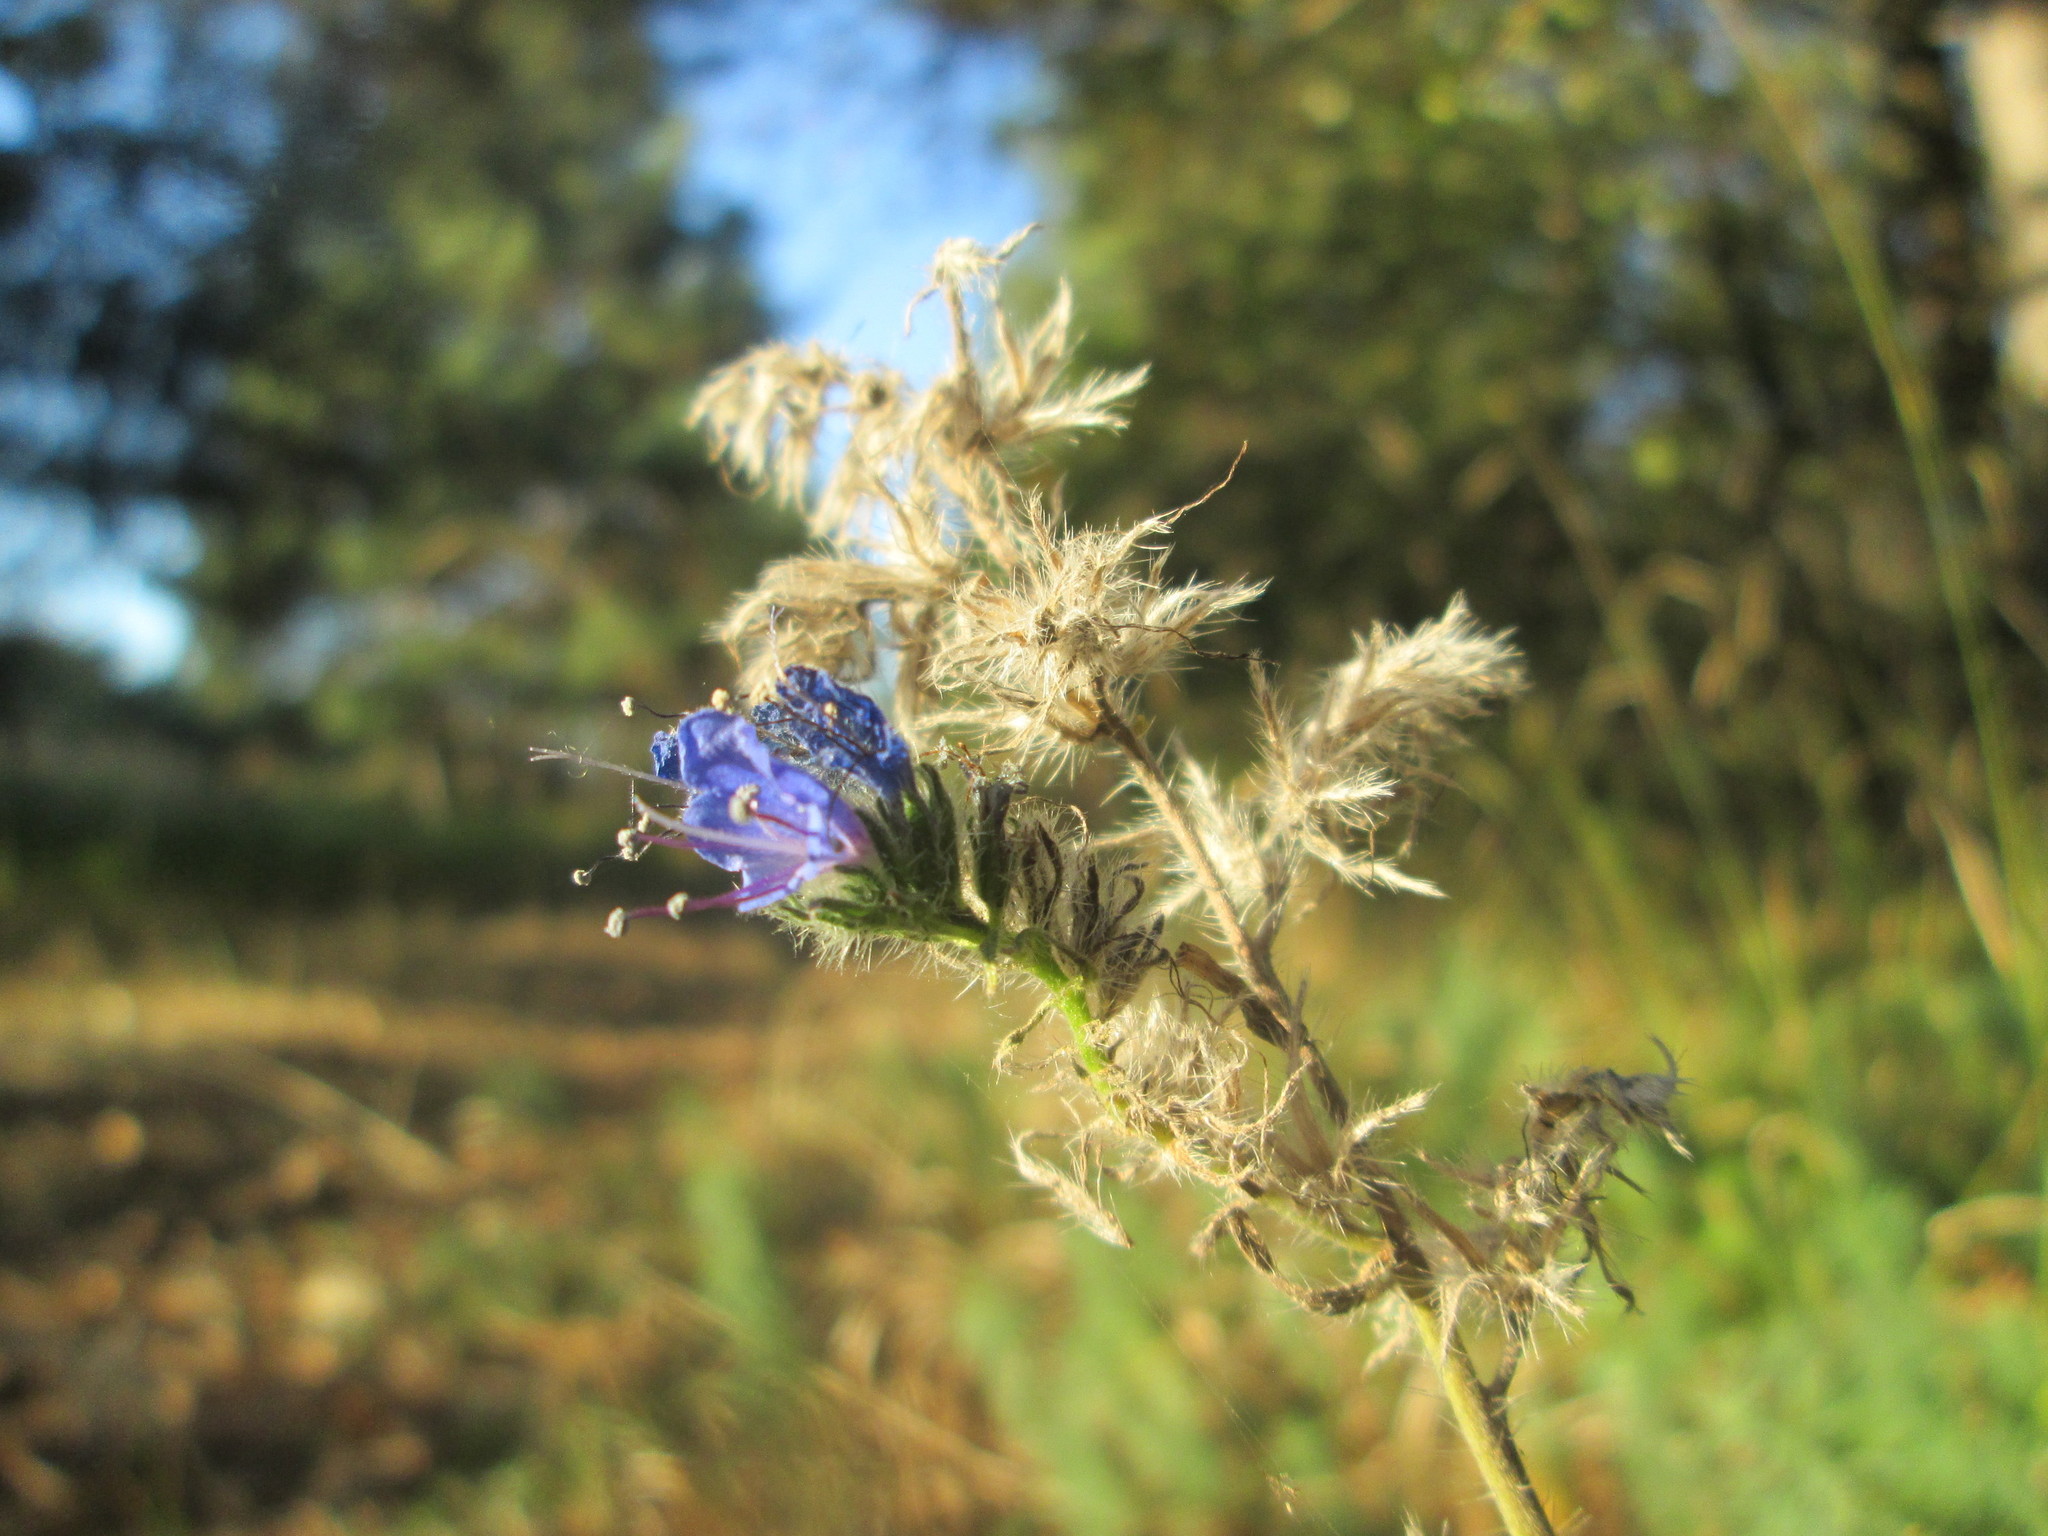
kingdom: Plantae
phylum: Tracheophyta
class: Magnoliopsida
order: Boraginales
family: Boraginaceae
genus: Echium
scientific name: Echium vulgare
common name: Common viper's bugloss
